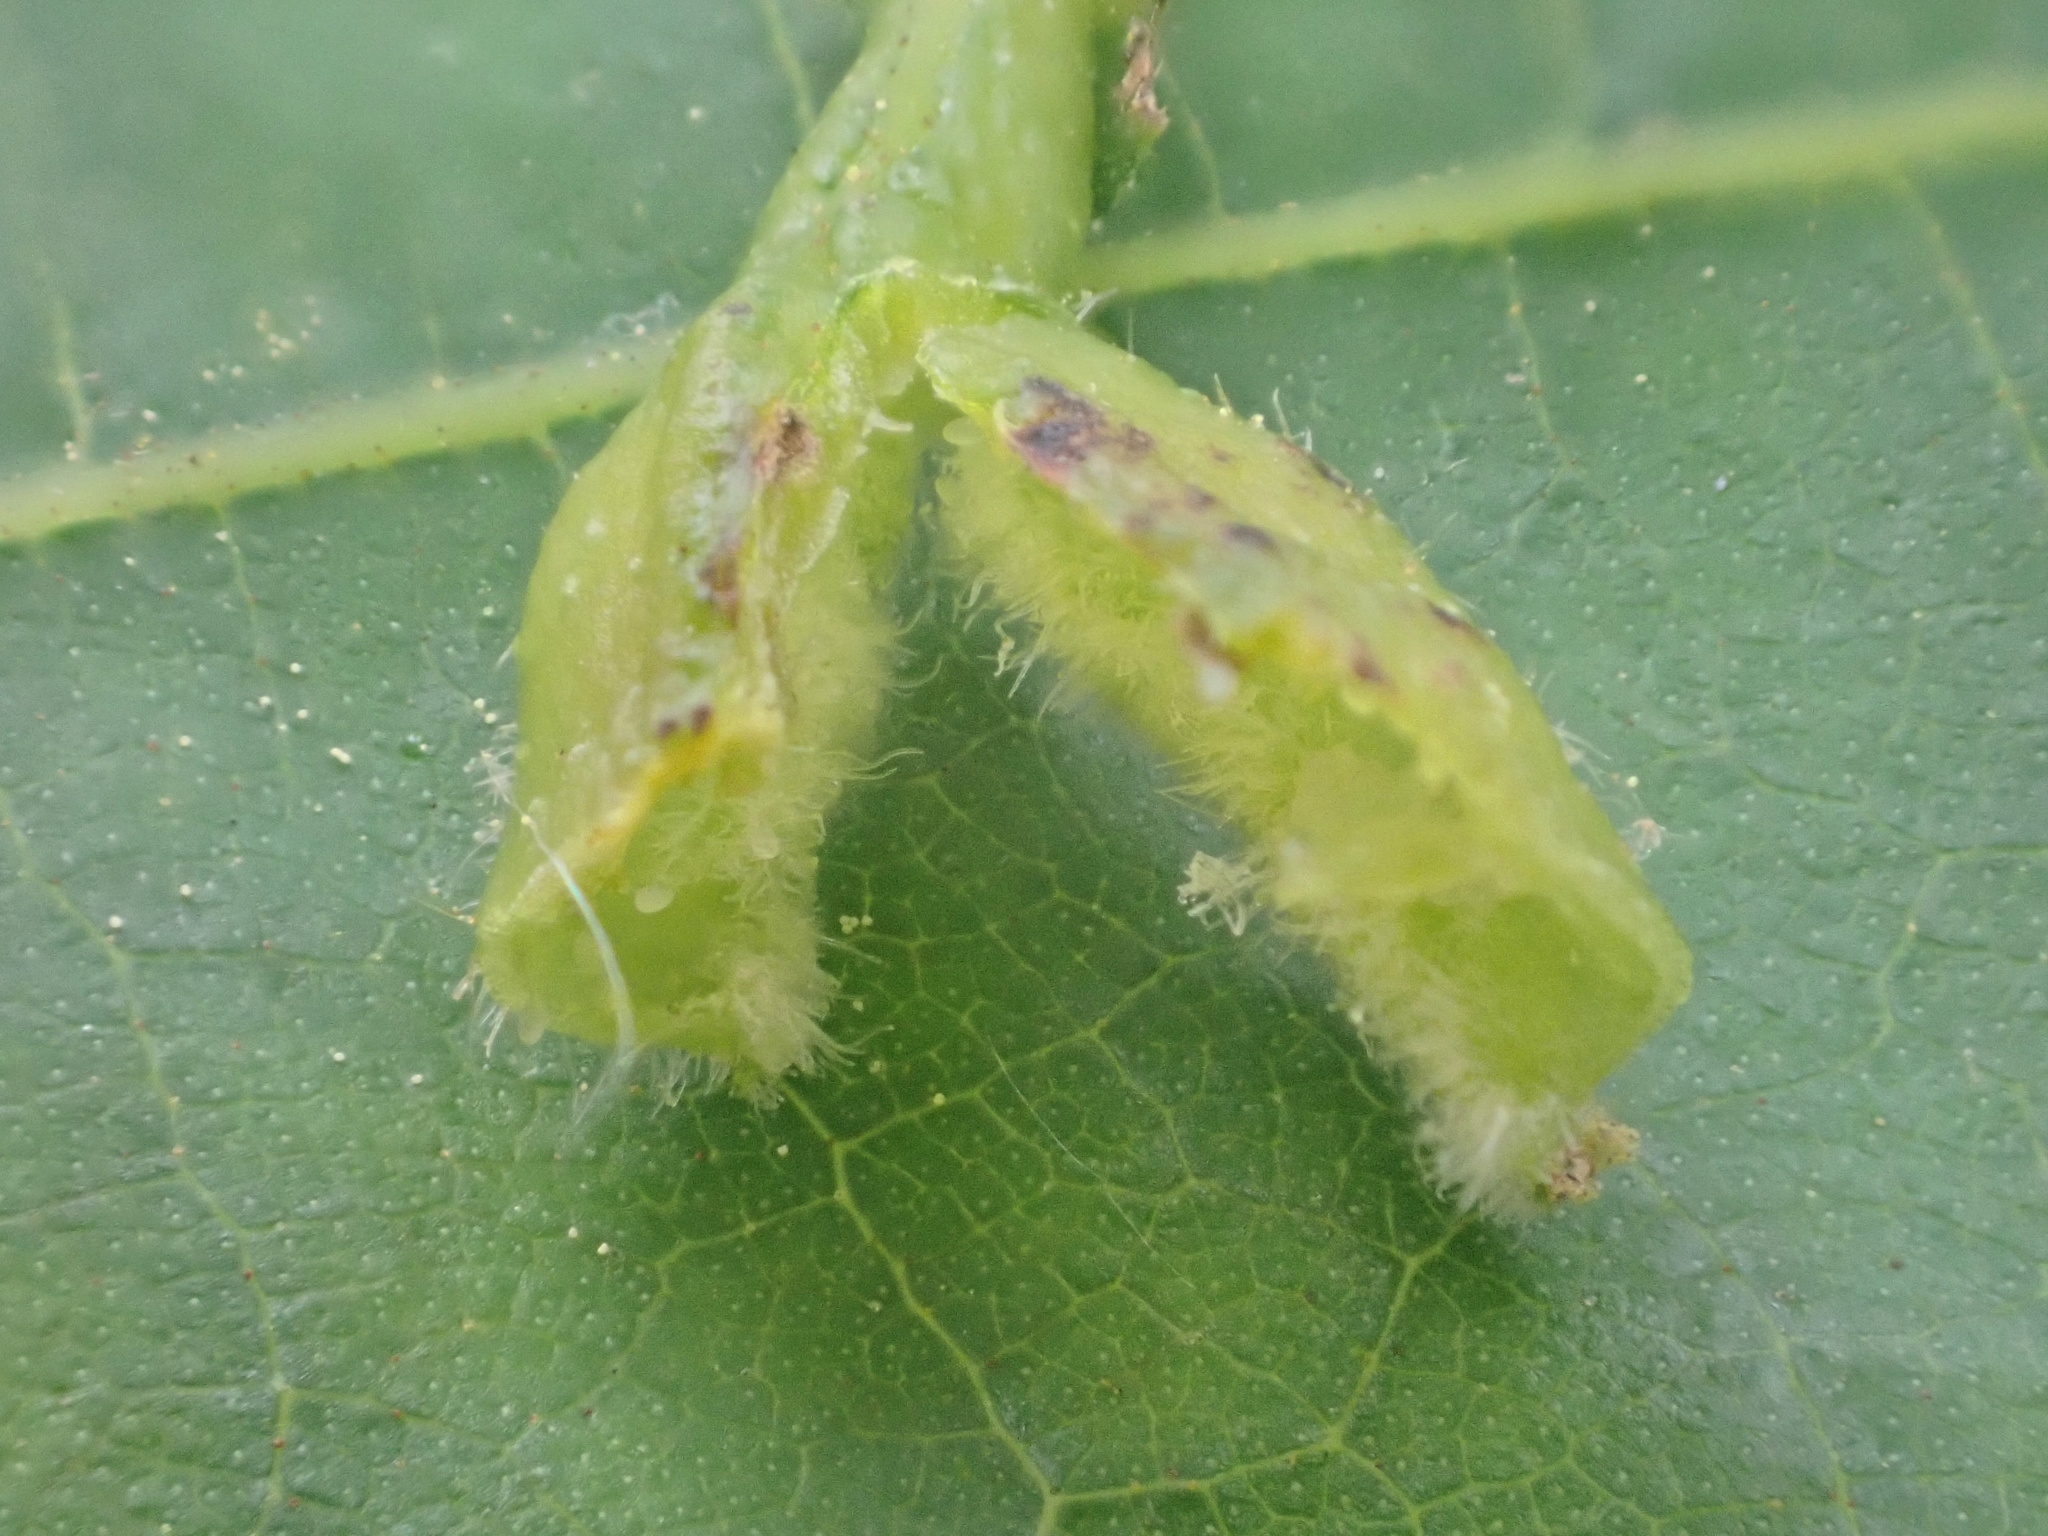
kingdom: Animalia
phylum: Arthropoda
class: Insecta
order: Hemiptera
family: Phylloxeridae
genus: Phylloxera
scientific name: Phylloxera caryaevenae
